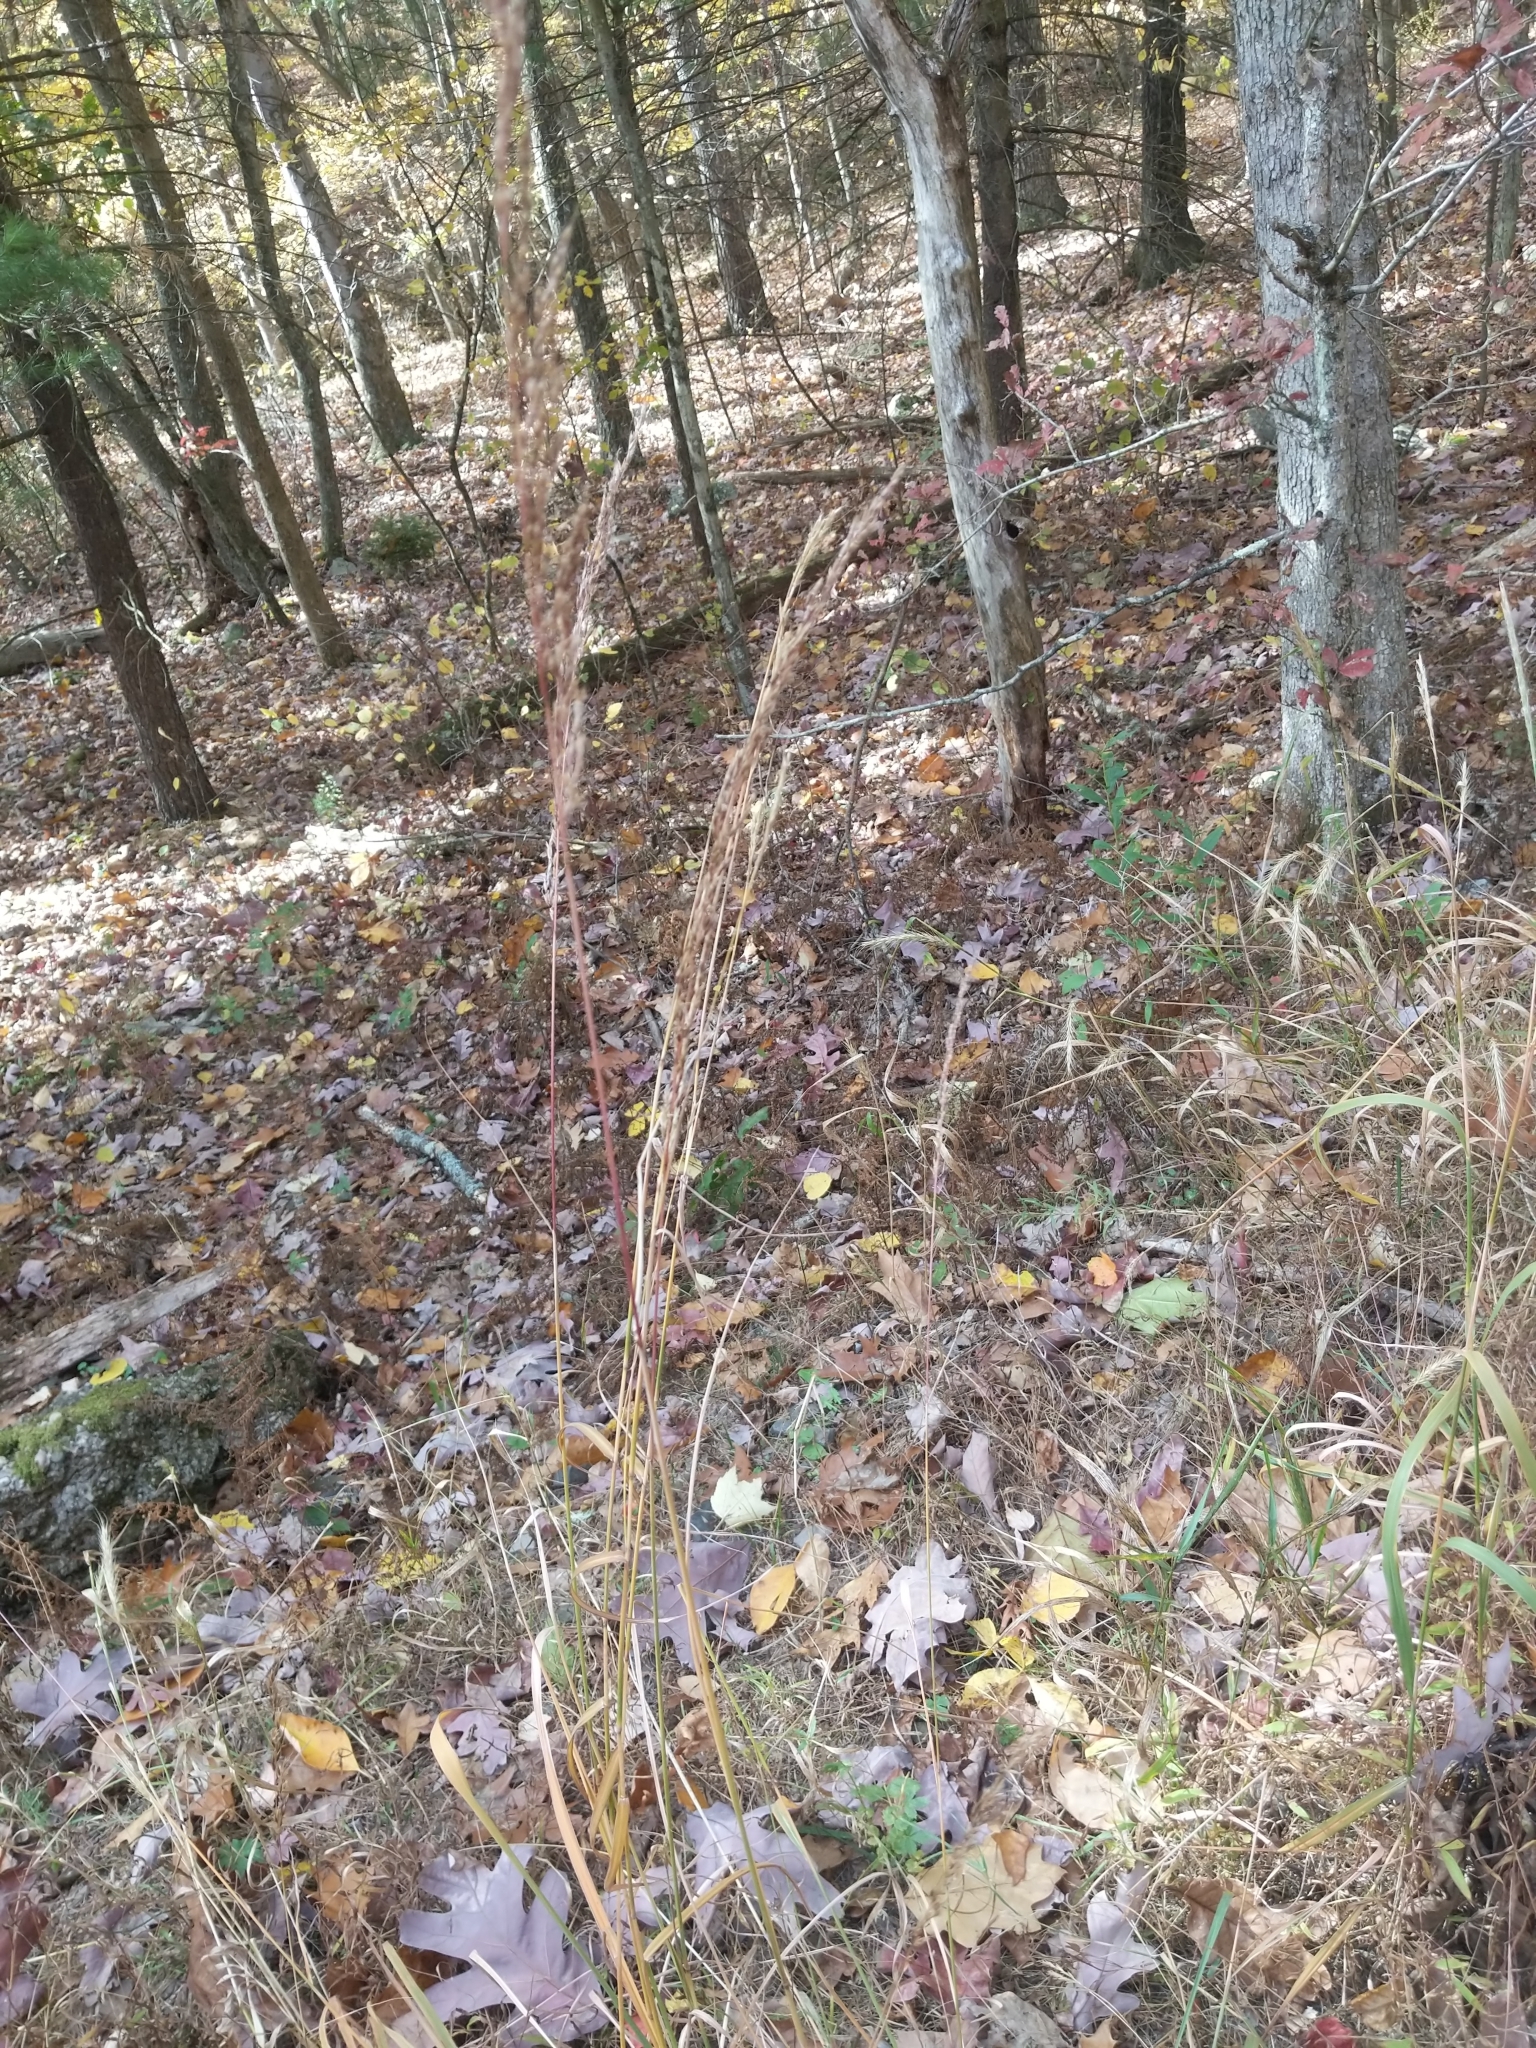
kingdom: Plantae
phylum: Tracheophyta
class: Liliopsida
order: Poales
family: Poaceae
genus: Sorghastrum
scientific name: Sorghastrum nutans
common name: Indian grass
